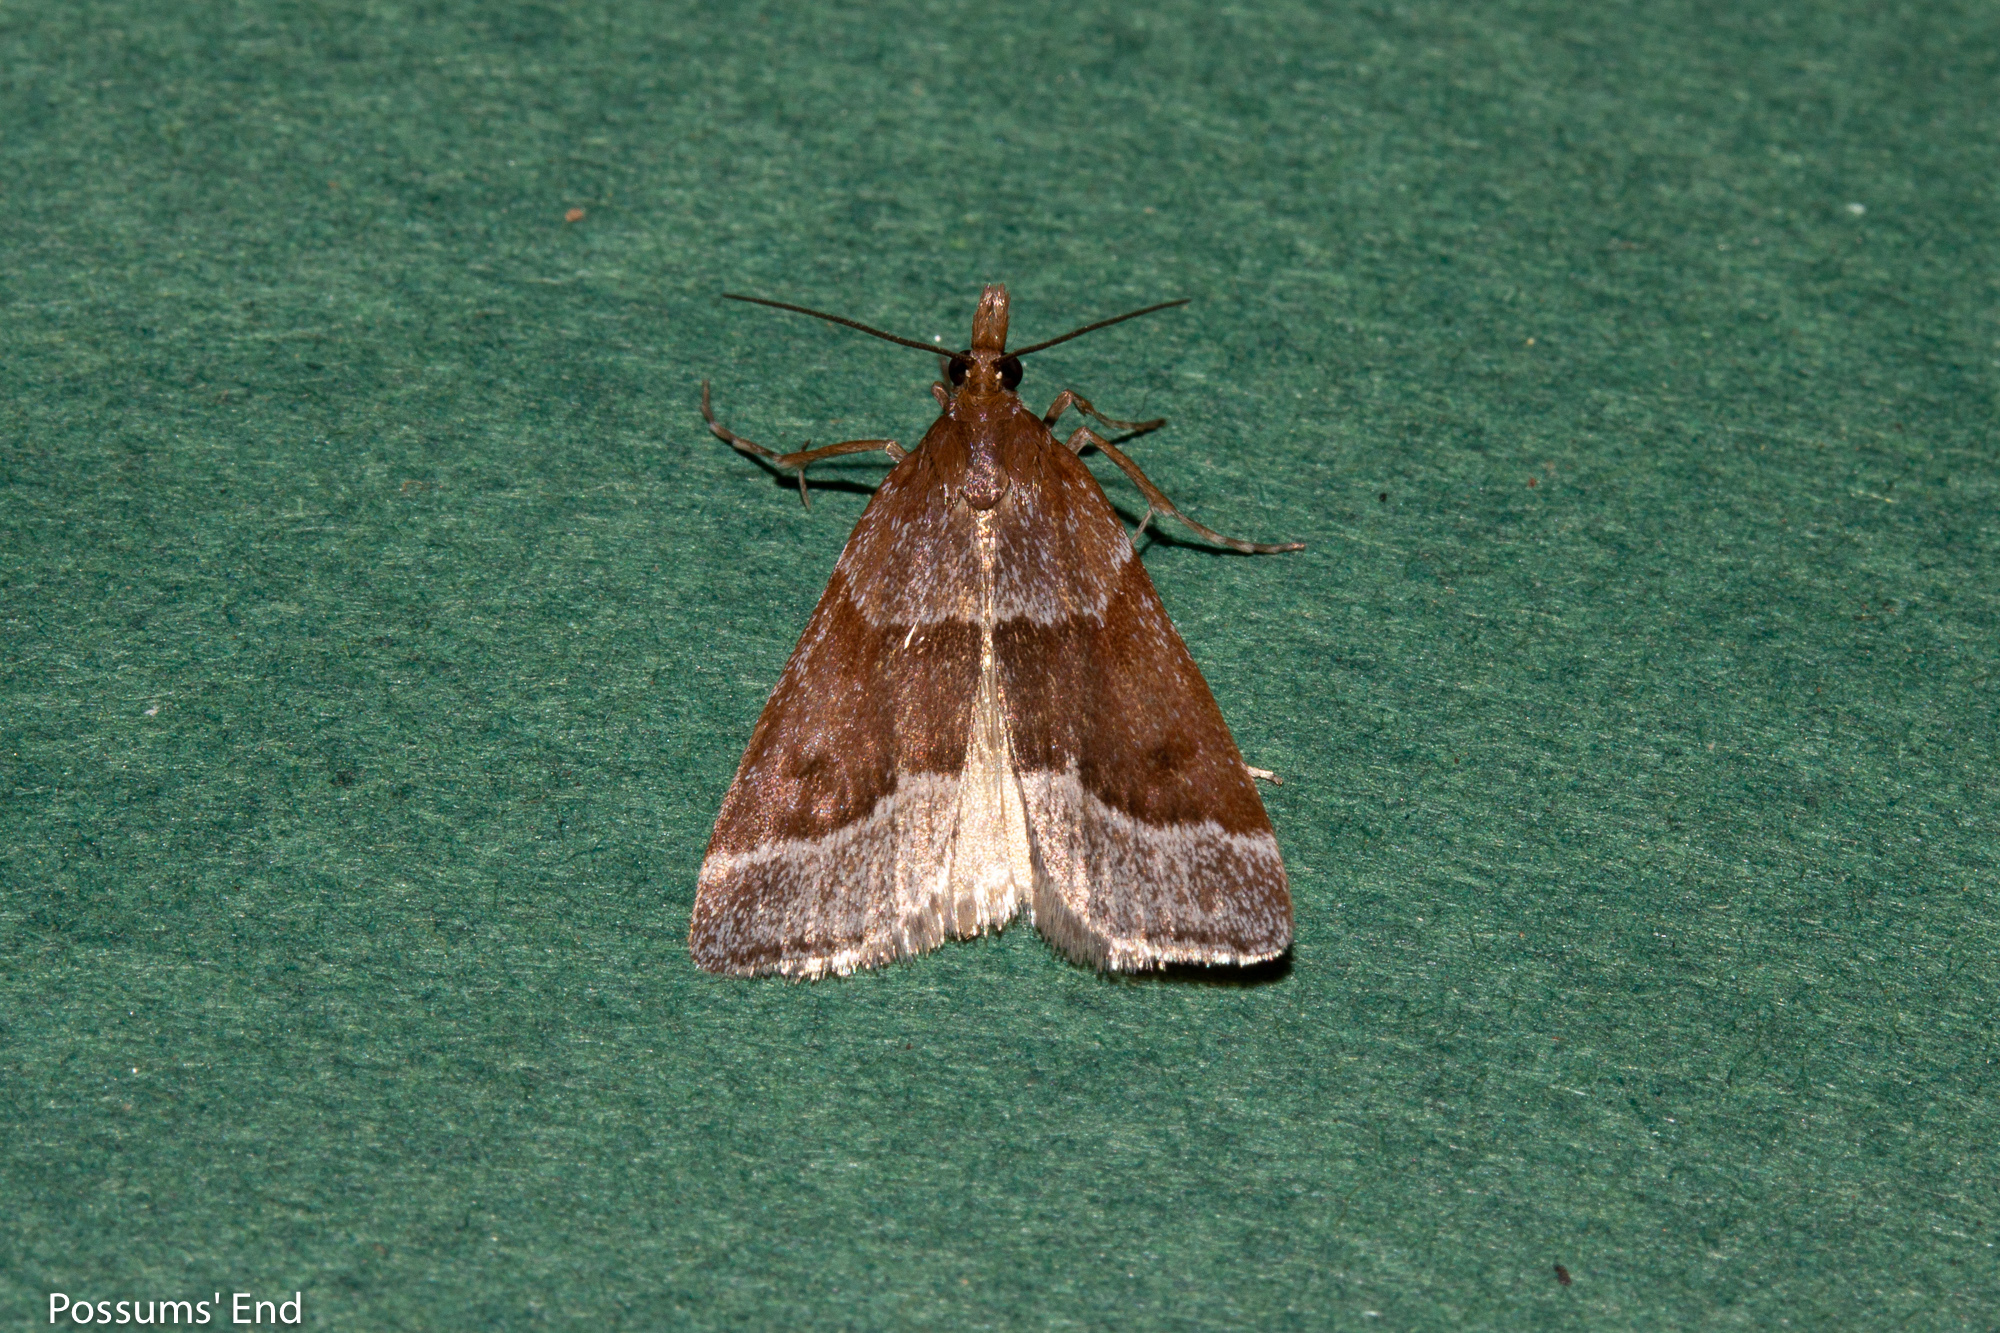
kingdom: Animalia
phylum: Arthropoda
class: Insecta
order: Lepidoptera
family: Crambidae
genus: Eudonia
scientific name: Eudonia feredayi
